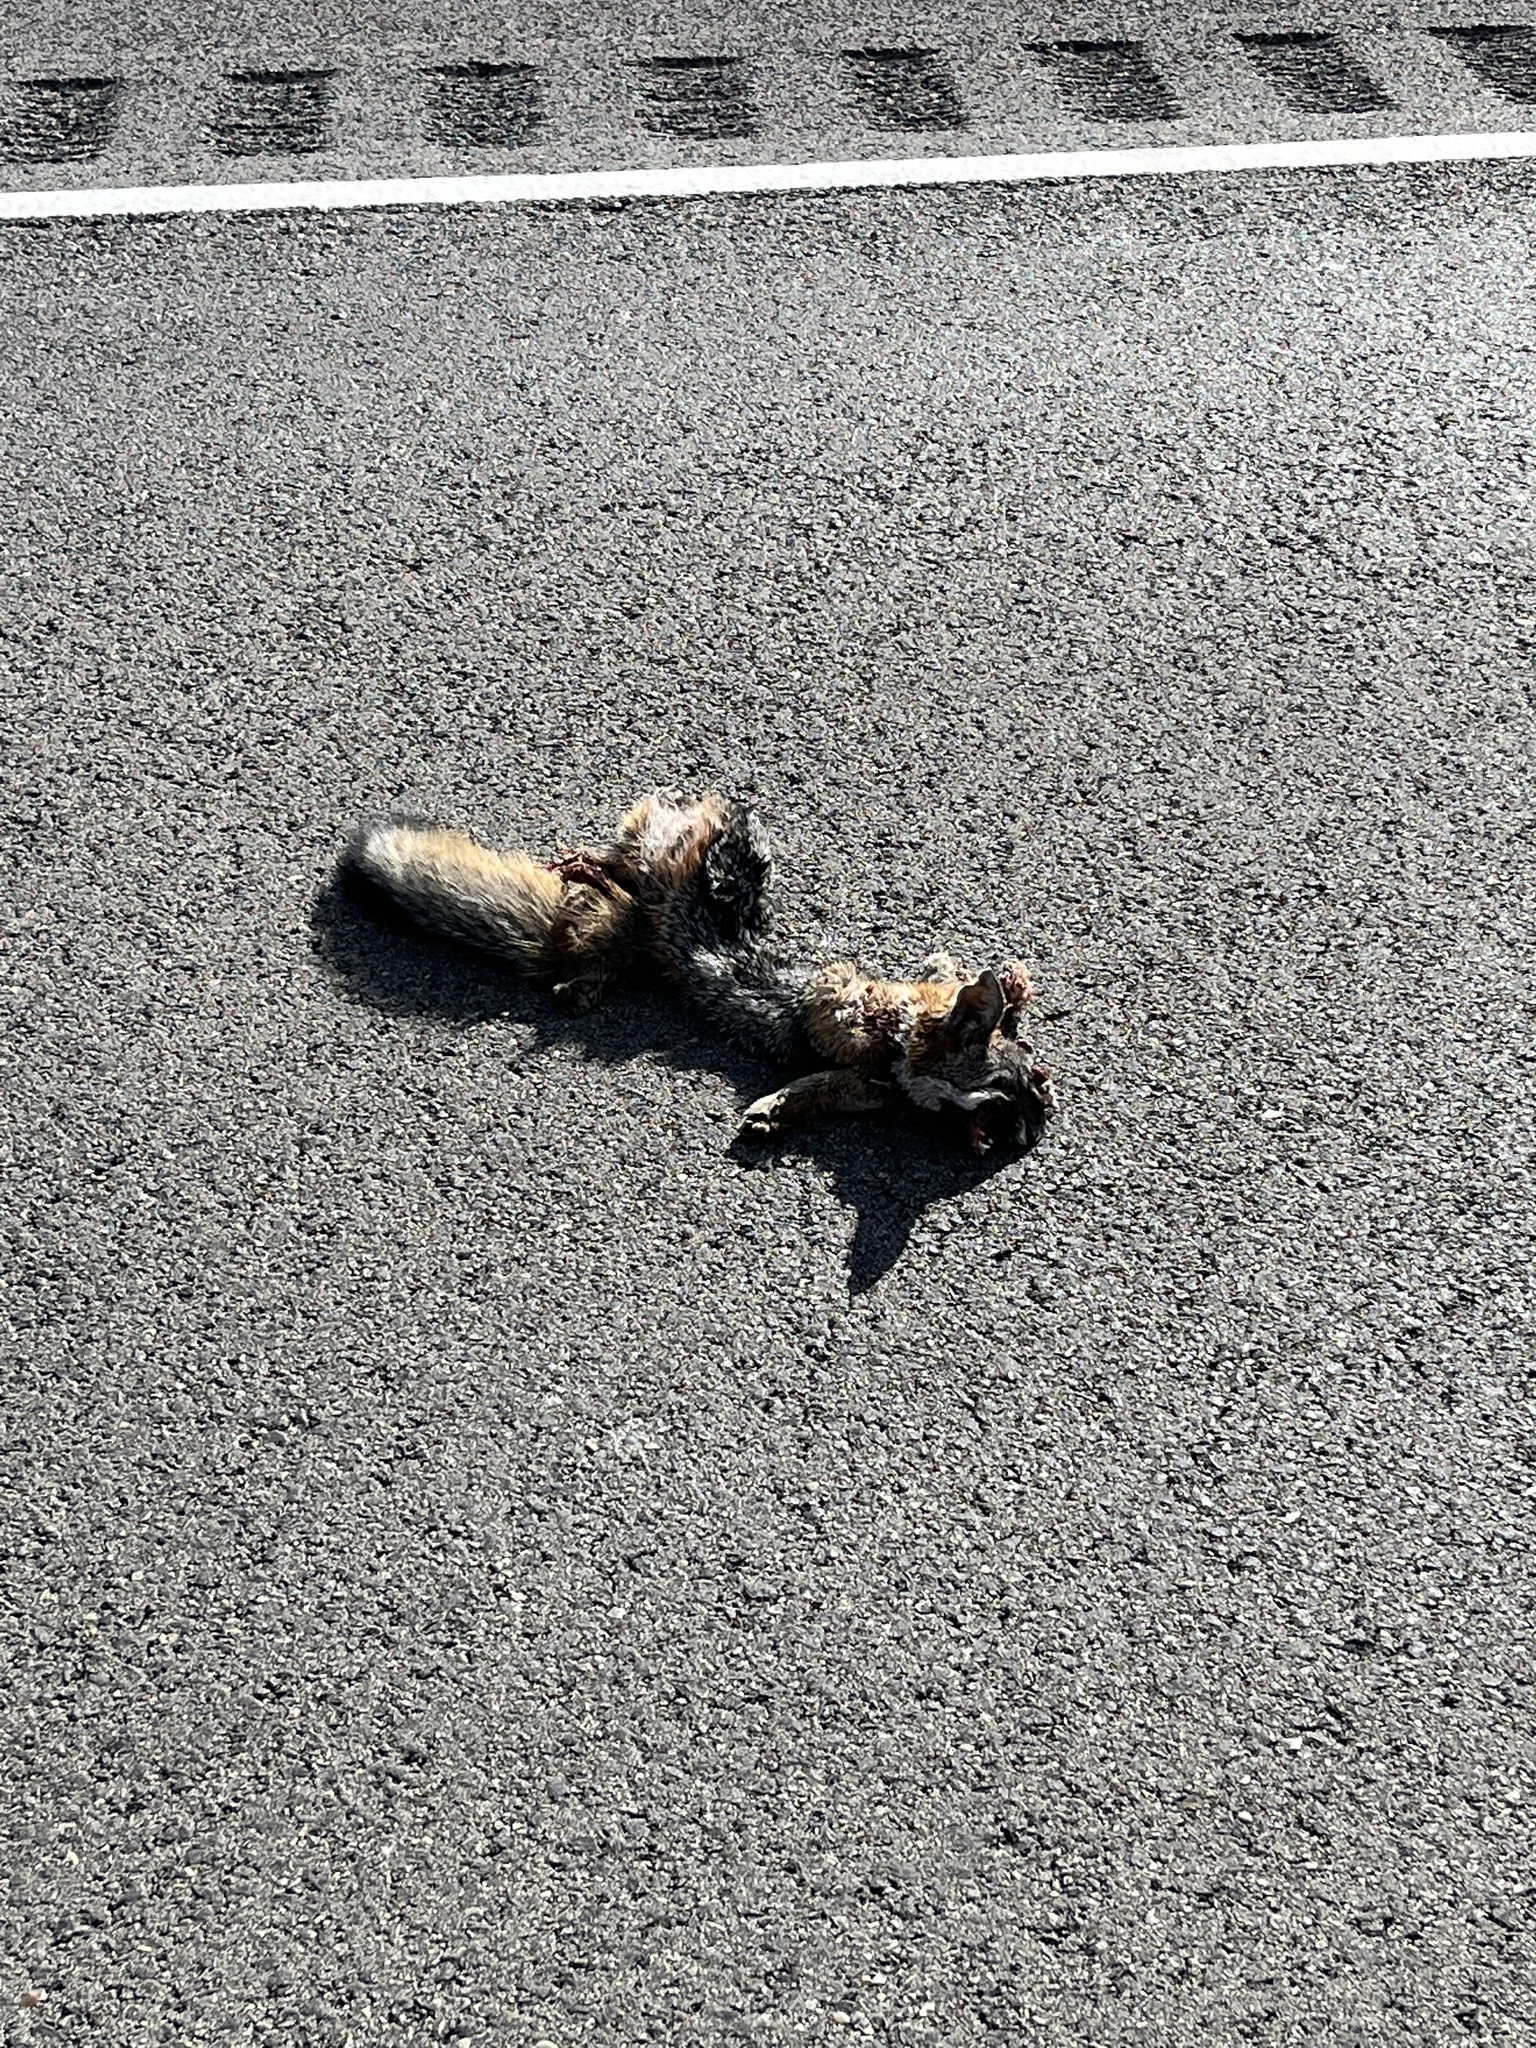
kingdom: Animalia
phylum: Chordata
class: Mammalia
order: Carnivora
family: Canidae
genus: Urocyon
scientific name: Urocyon cinereoargenteus
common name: Gray fox
